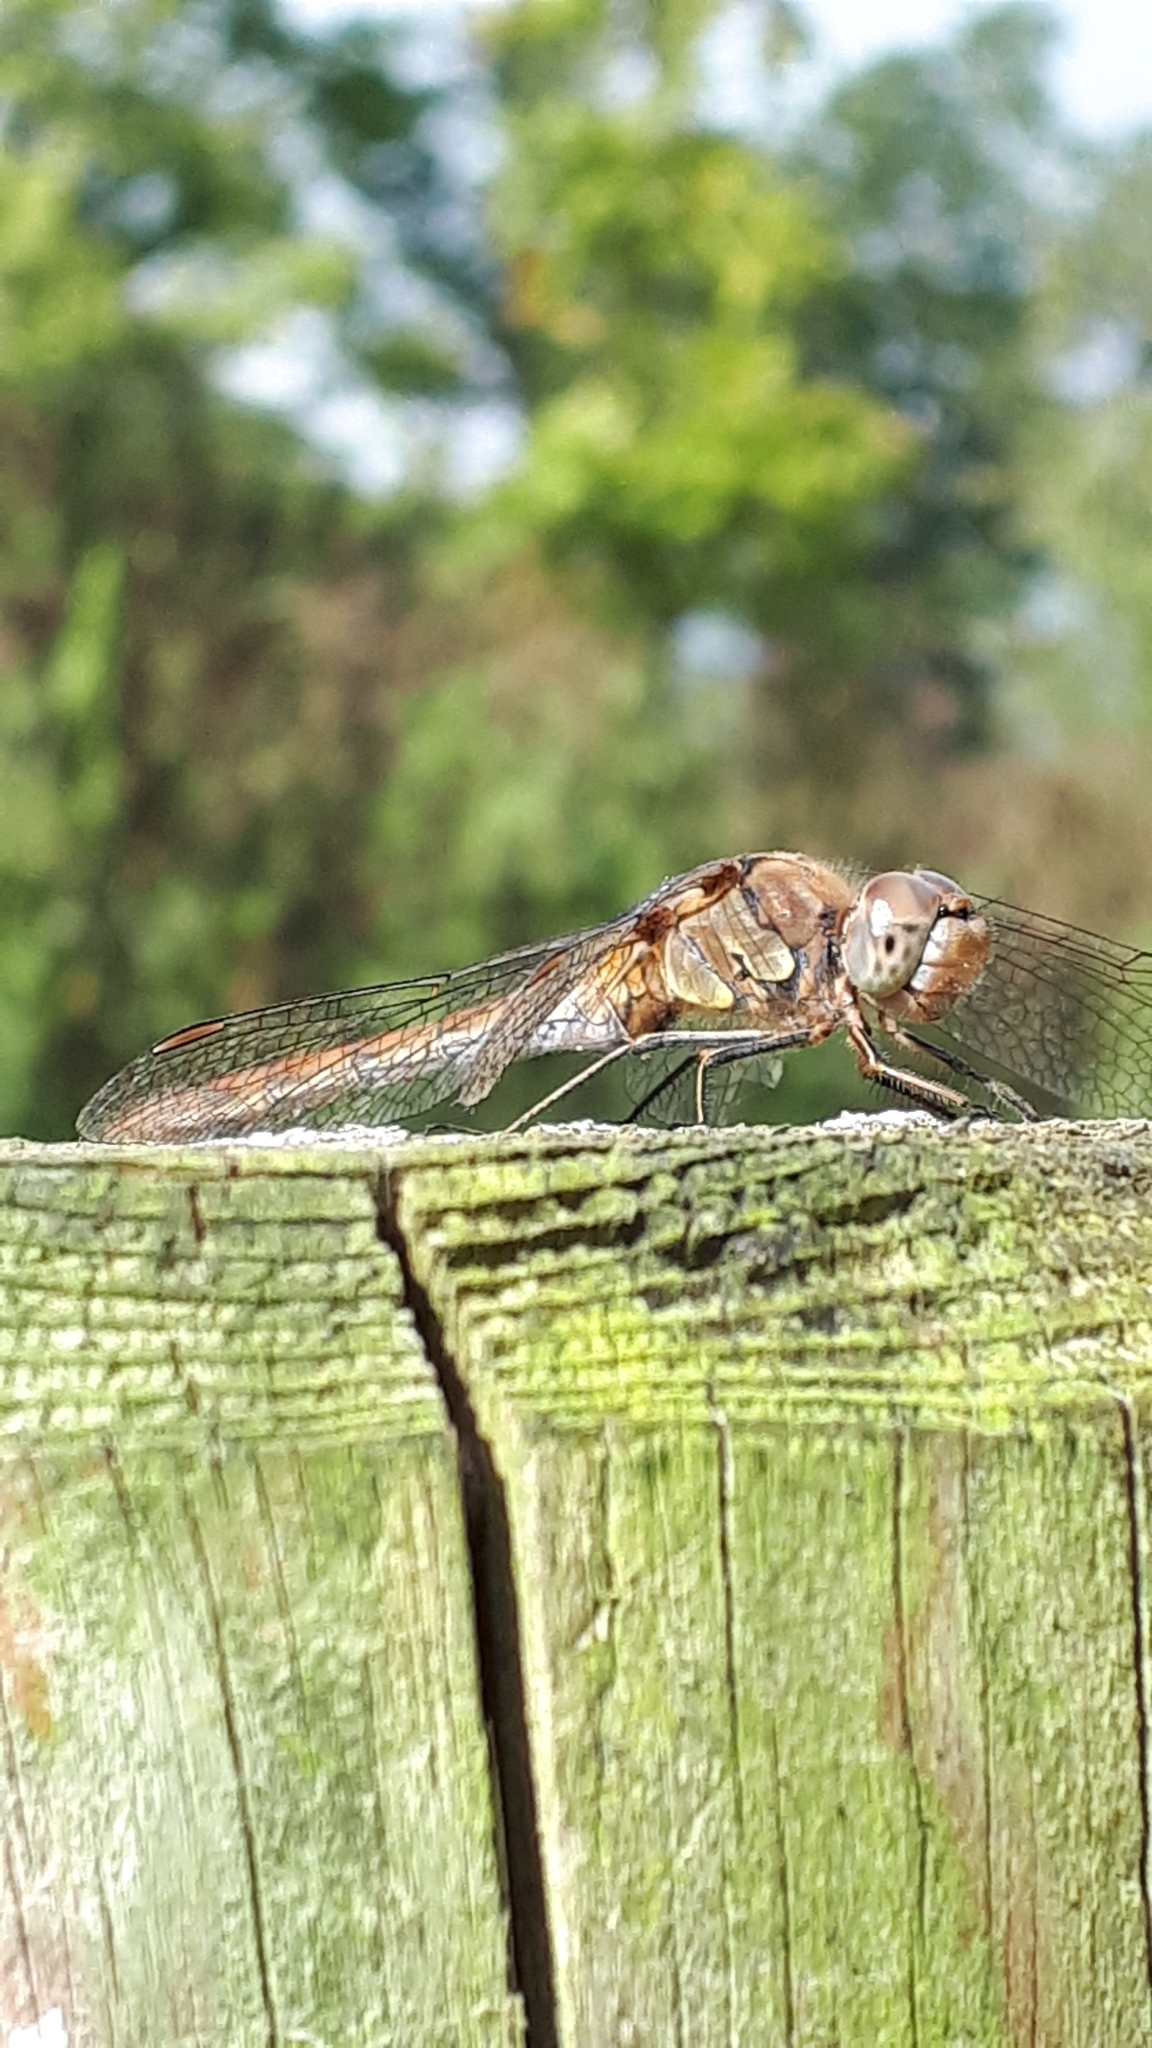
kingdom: Animalia
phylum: Arthropoda
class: Insecta
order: Odonata
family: Libellulidae
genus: Sympetrum
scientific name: Sympetrum striolatum
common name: Common darter
